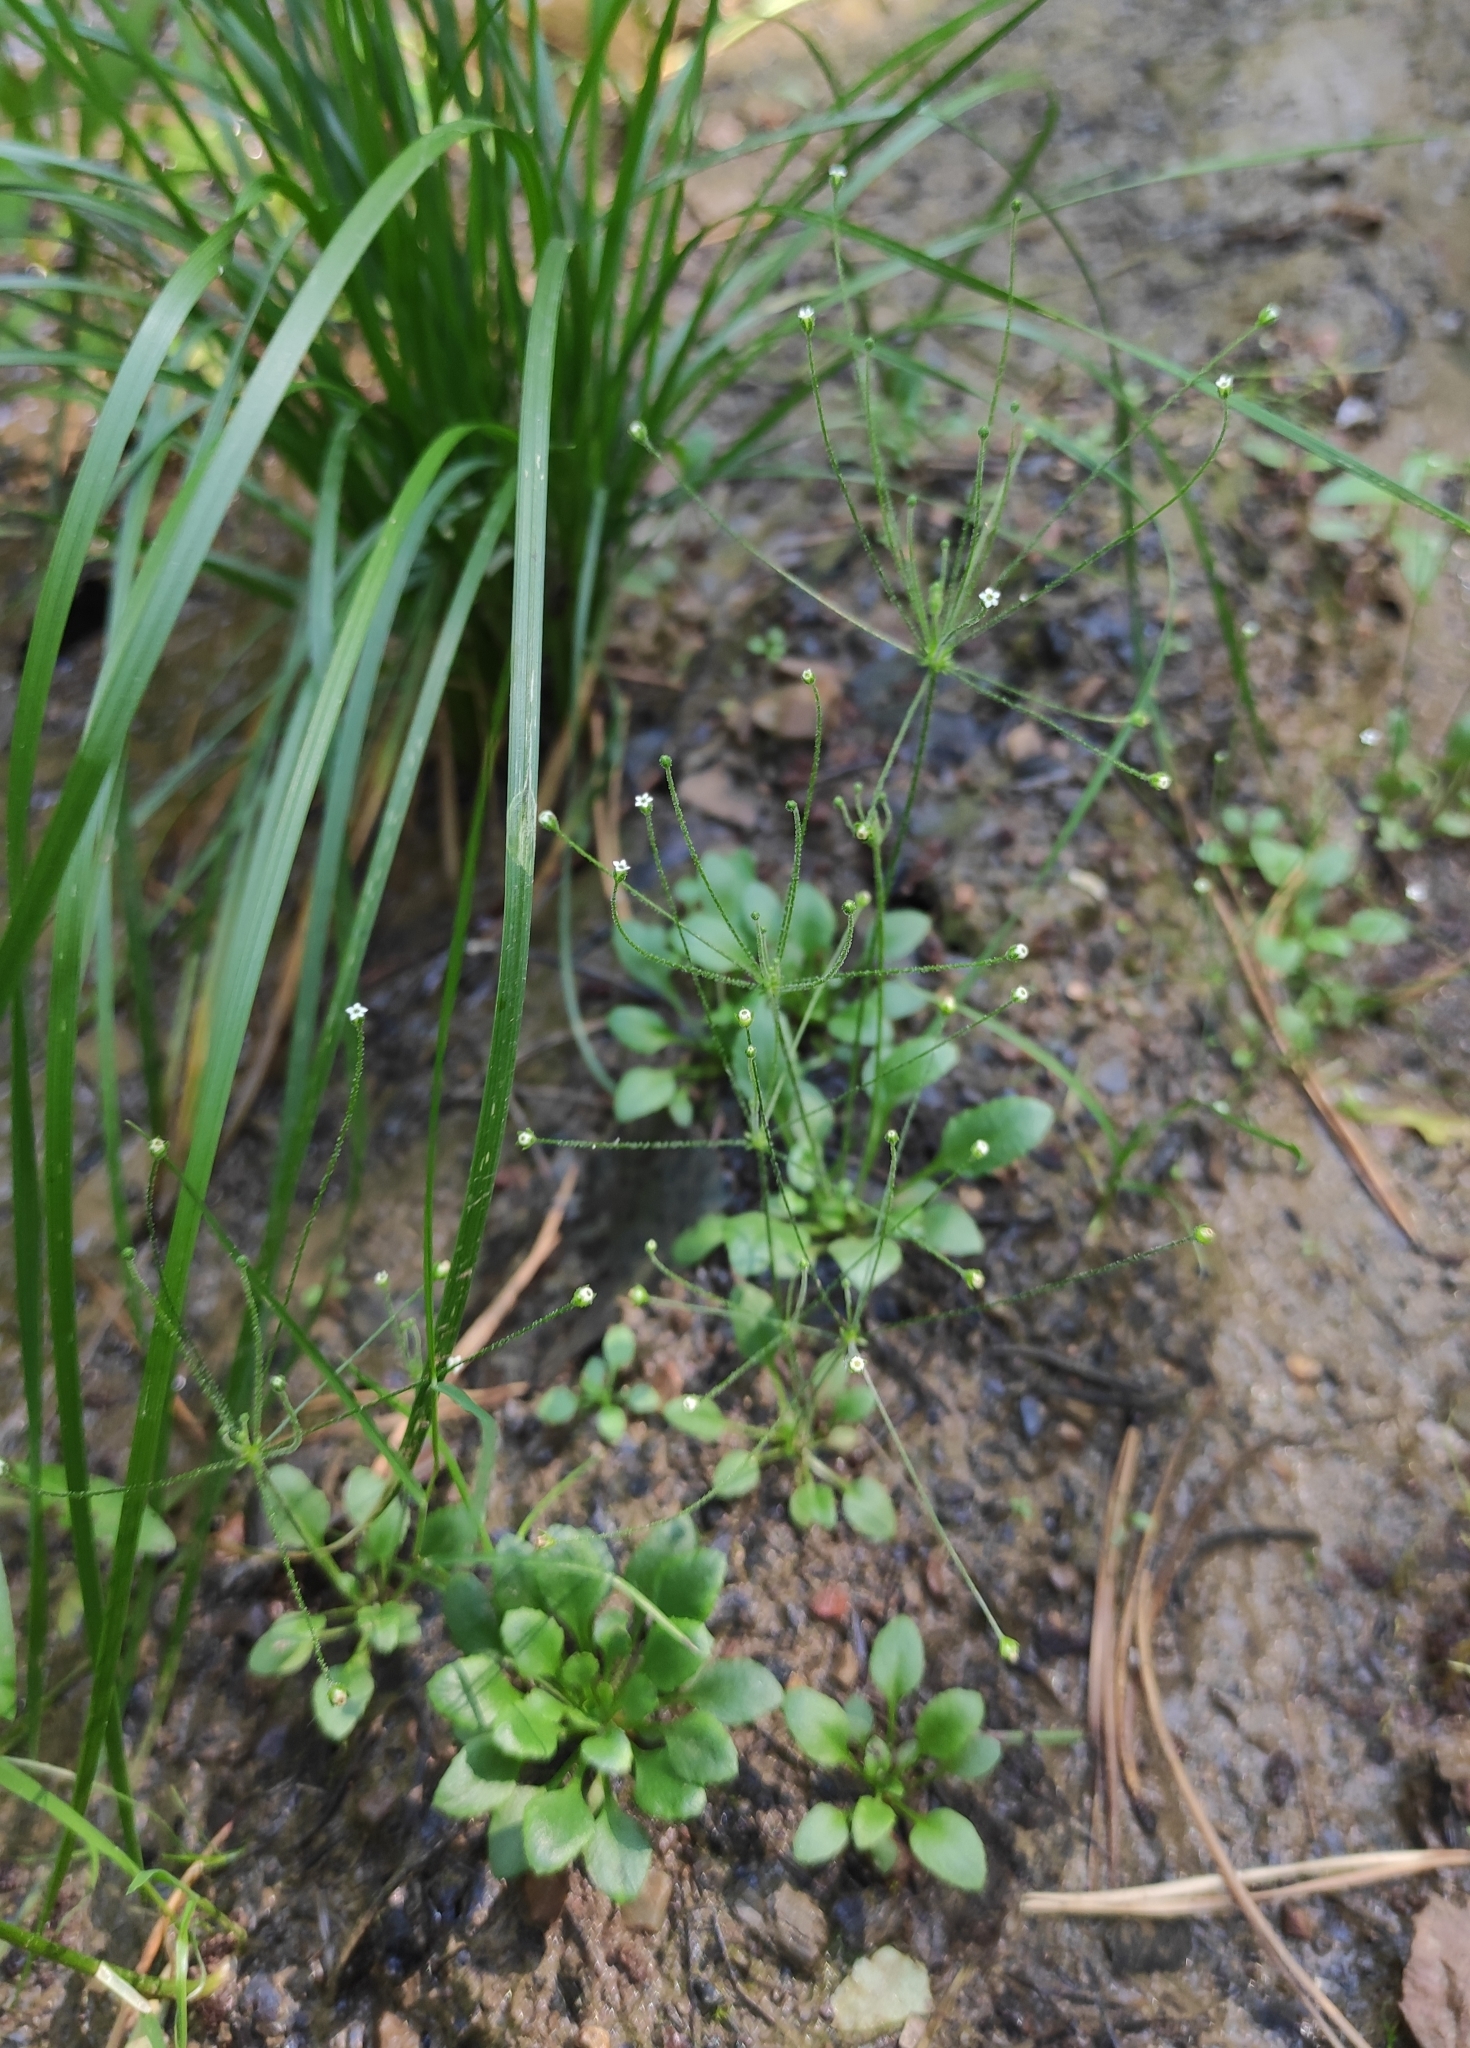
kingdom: Plantae
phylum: Tracheophyta
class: Magnoliopsida
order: Ericales
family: Primulaceae
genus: Androsace
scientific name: Androsace filiformis
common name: Filiform rock jasmine
